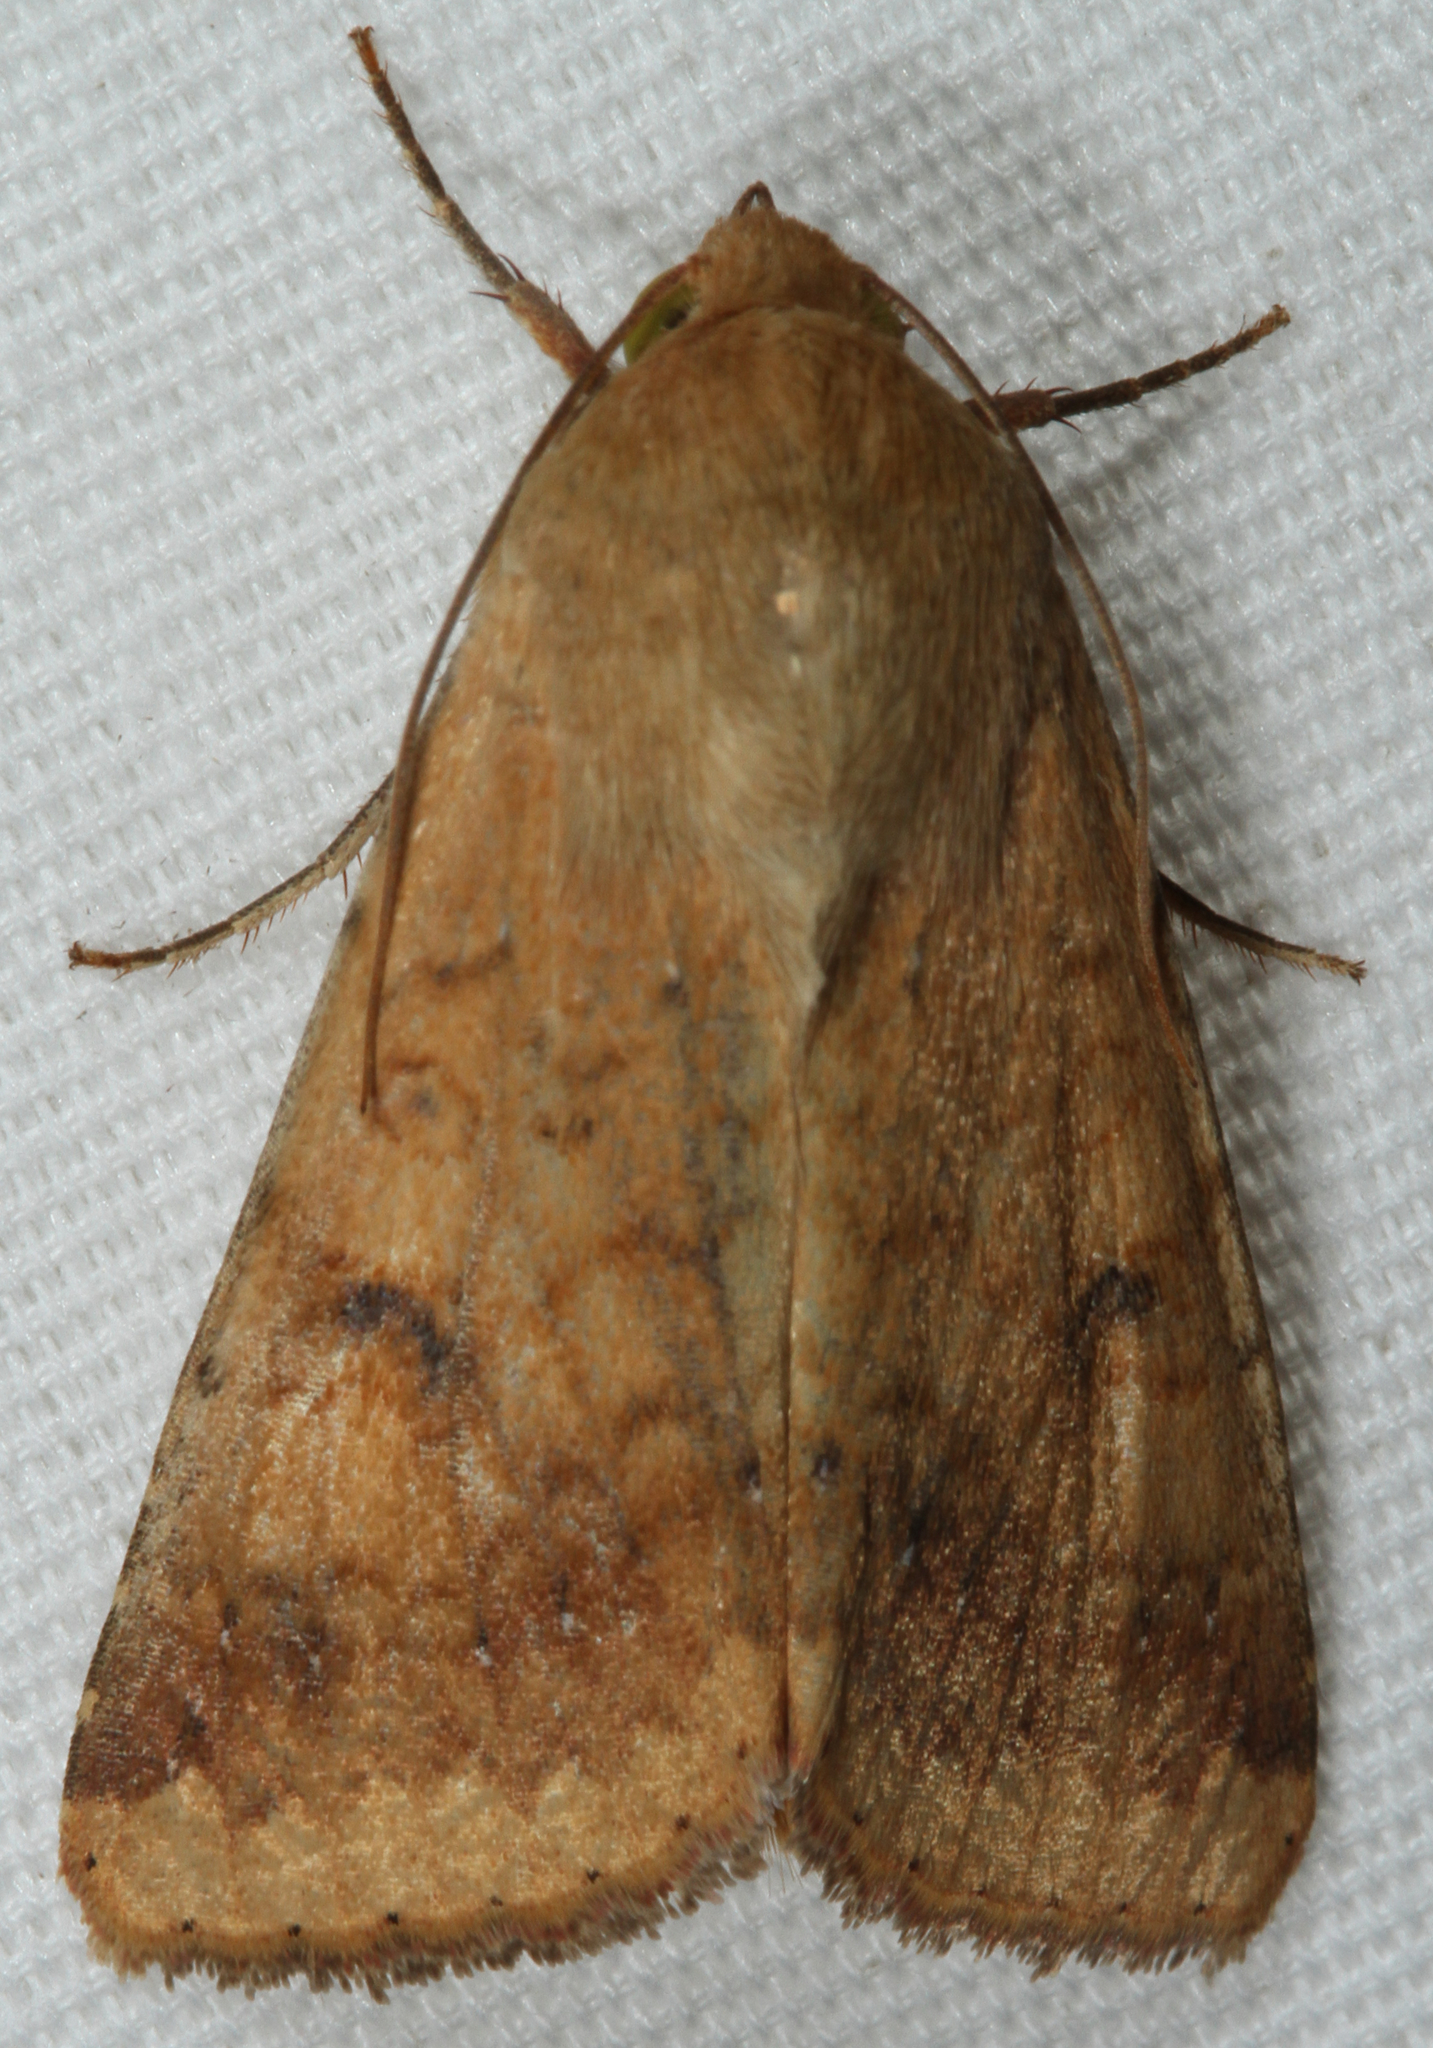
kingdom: Animalia
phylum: Arthropoda
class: Insecta
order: Lepidoptera
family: Noctuidae
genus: Helicoverpa
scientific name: Helicoverpa zea
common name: Bollworm
